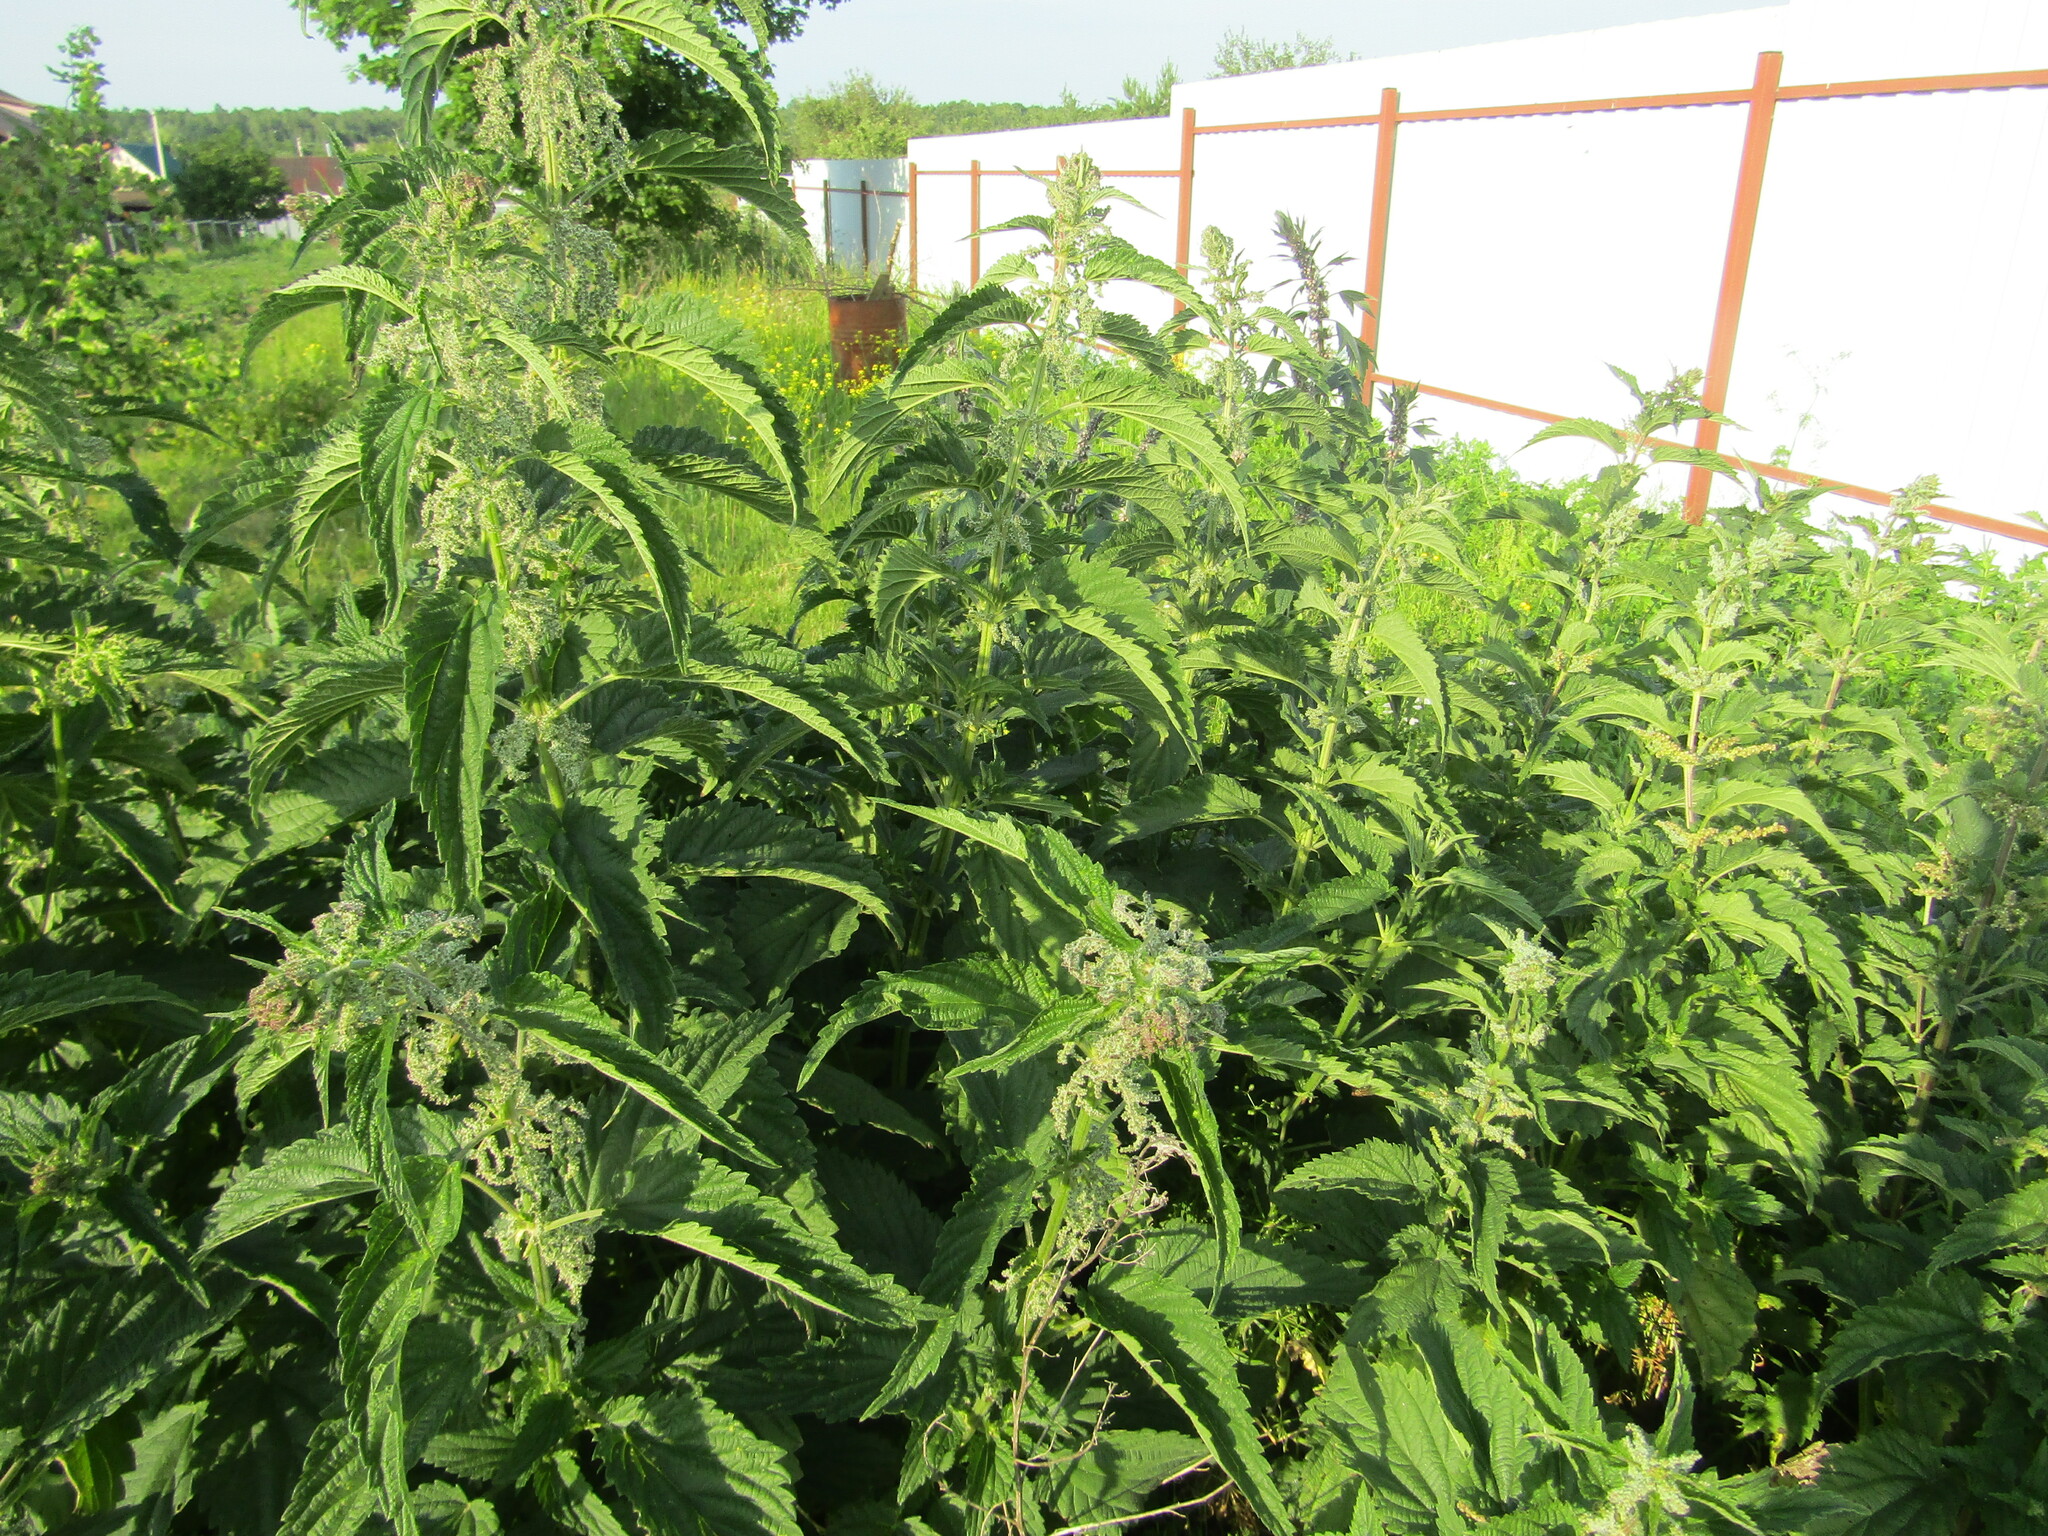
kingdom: Plantae
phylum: Tracheophyta
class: Magnoliopsida
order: Rosales
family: Urticaceae
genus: Urtica
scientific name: Urtica dioica
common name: Common nettle
